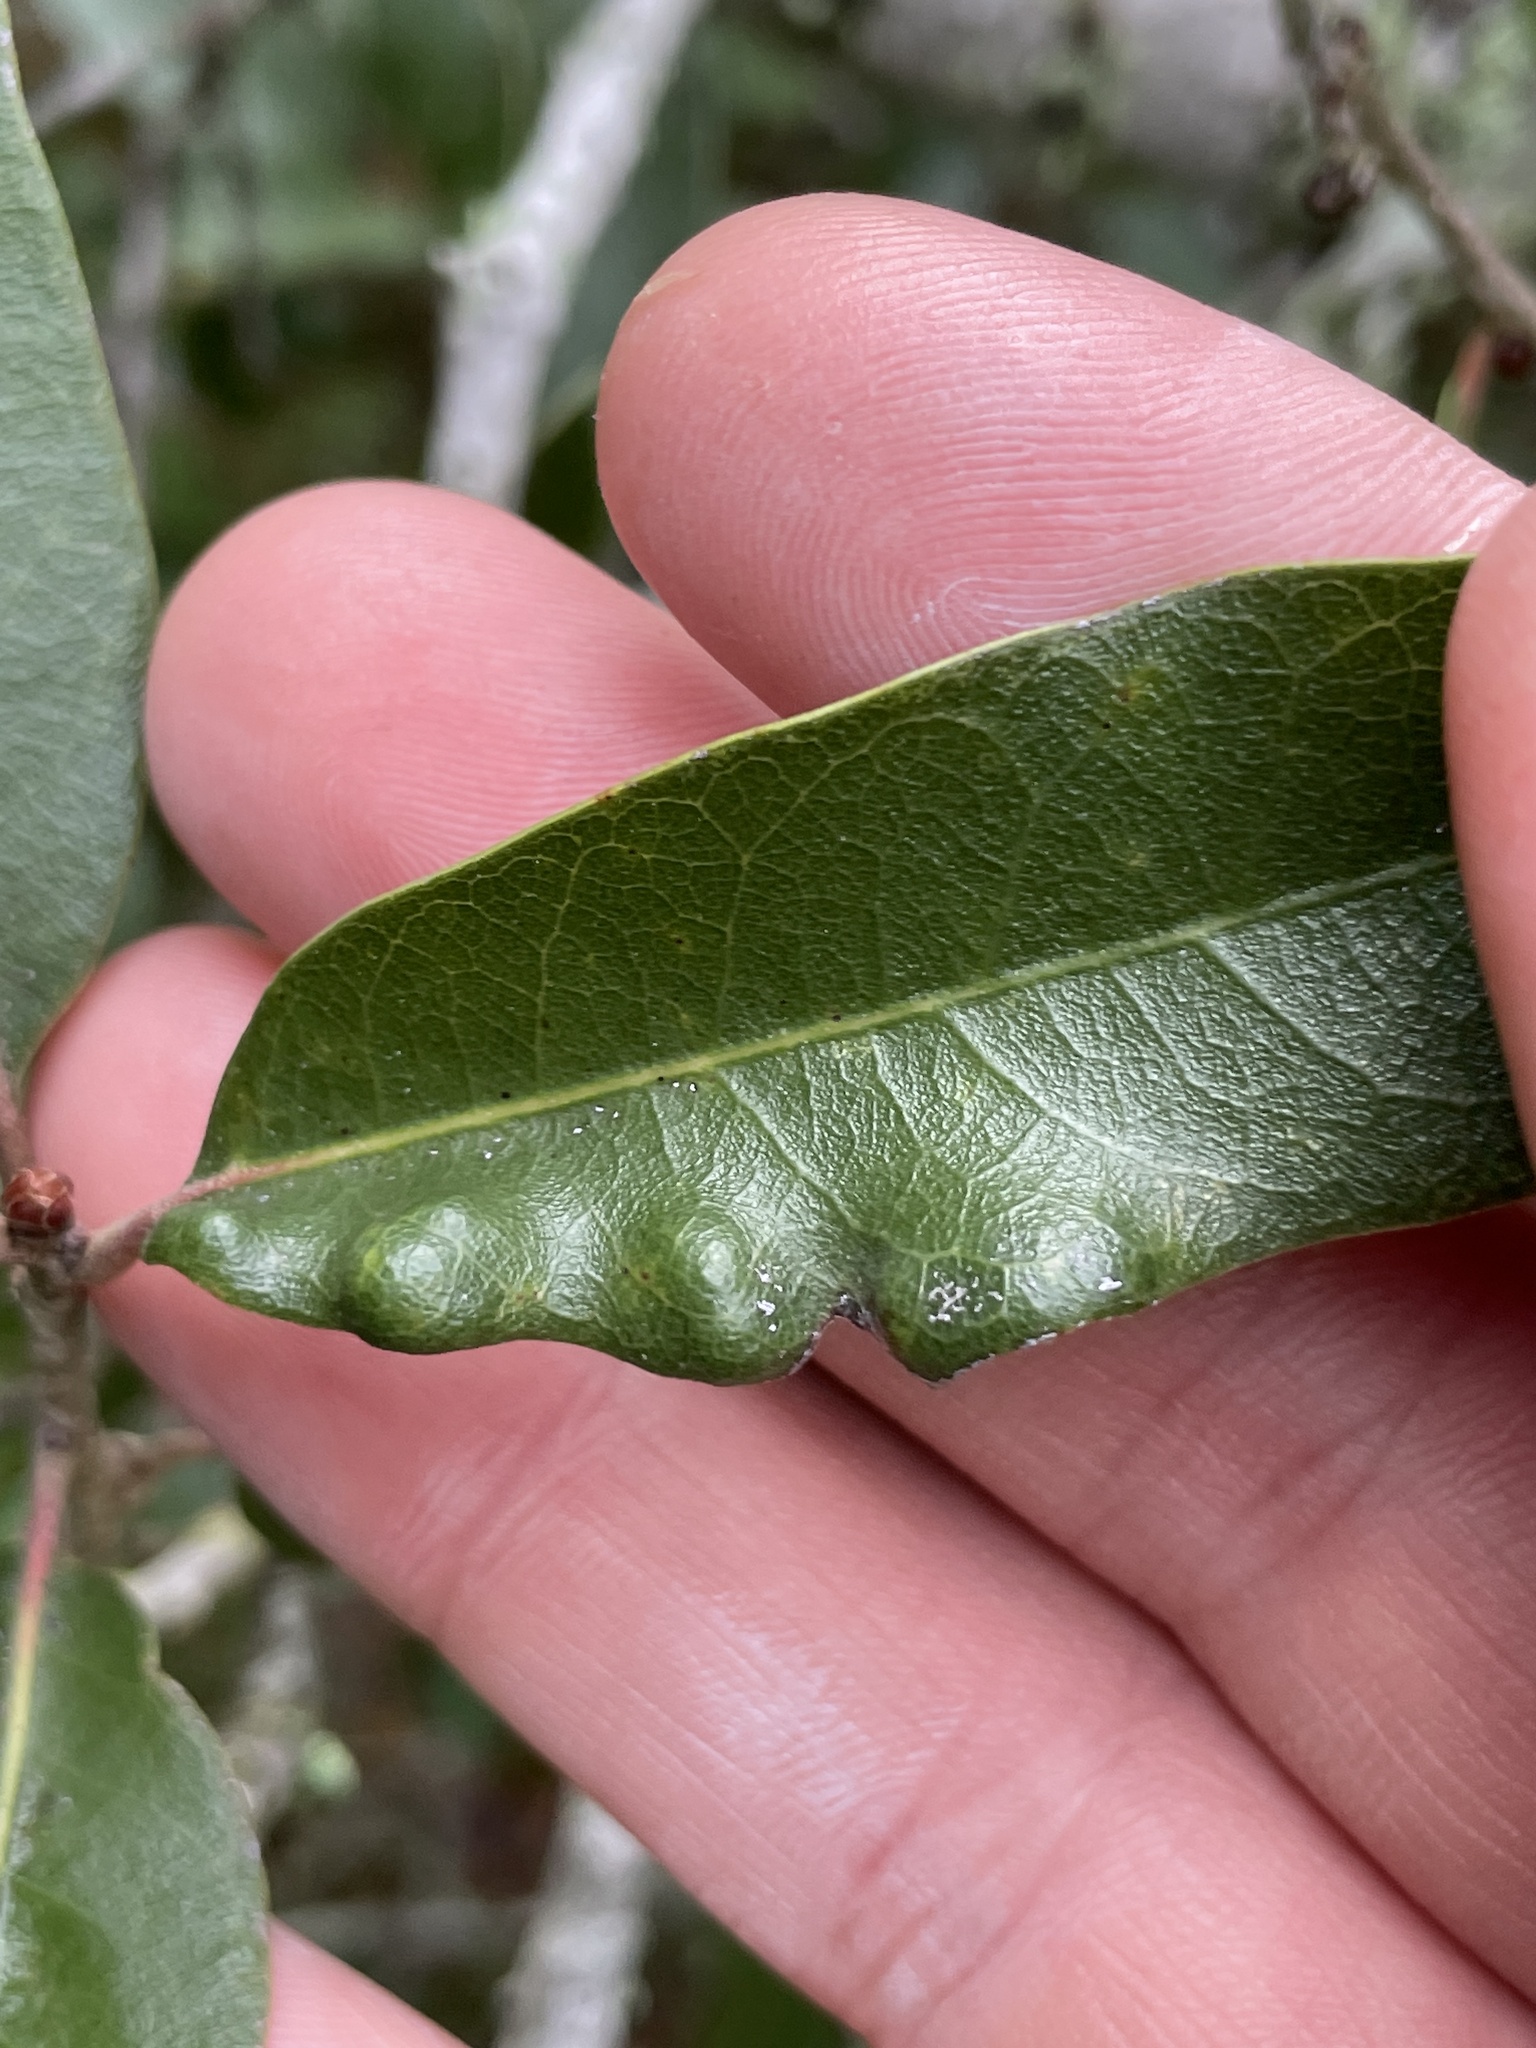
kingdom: Animalia
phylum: Arthropoda
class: Arachnida
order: Trombidiformes
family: Eriophyidae
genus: Aceria
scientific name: Aceria quercina
